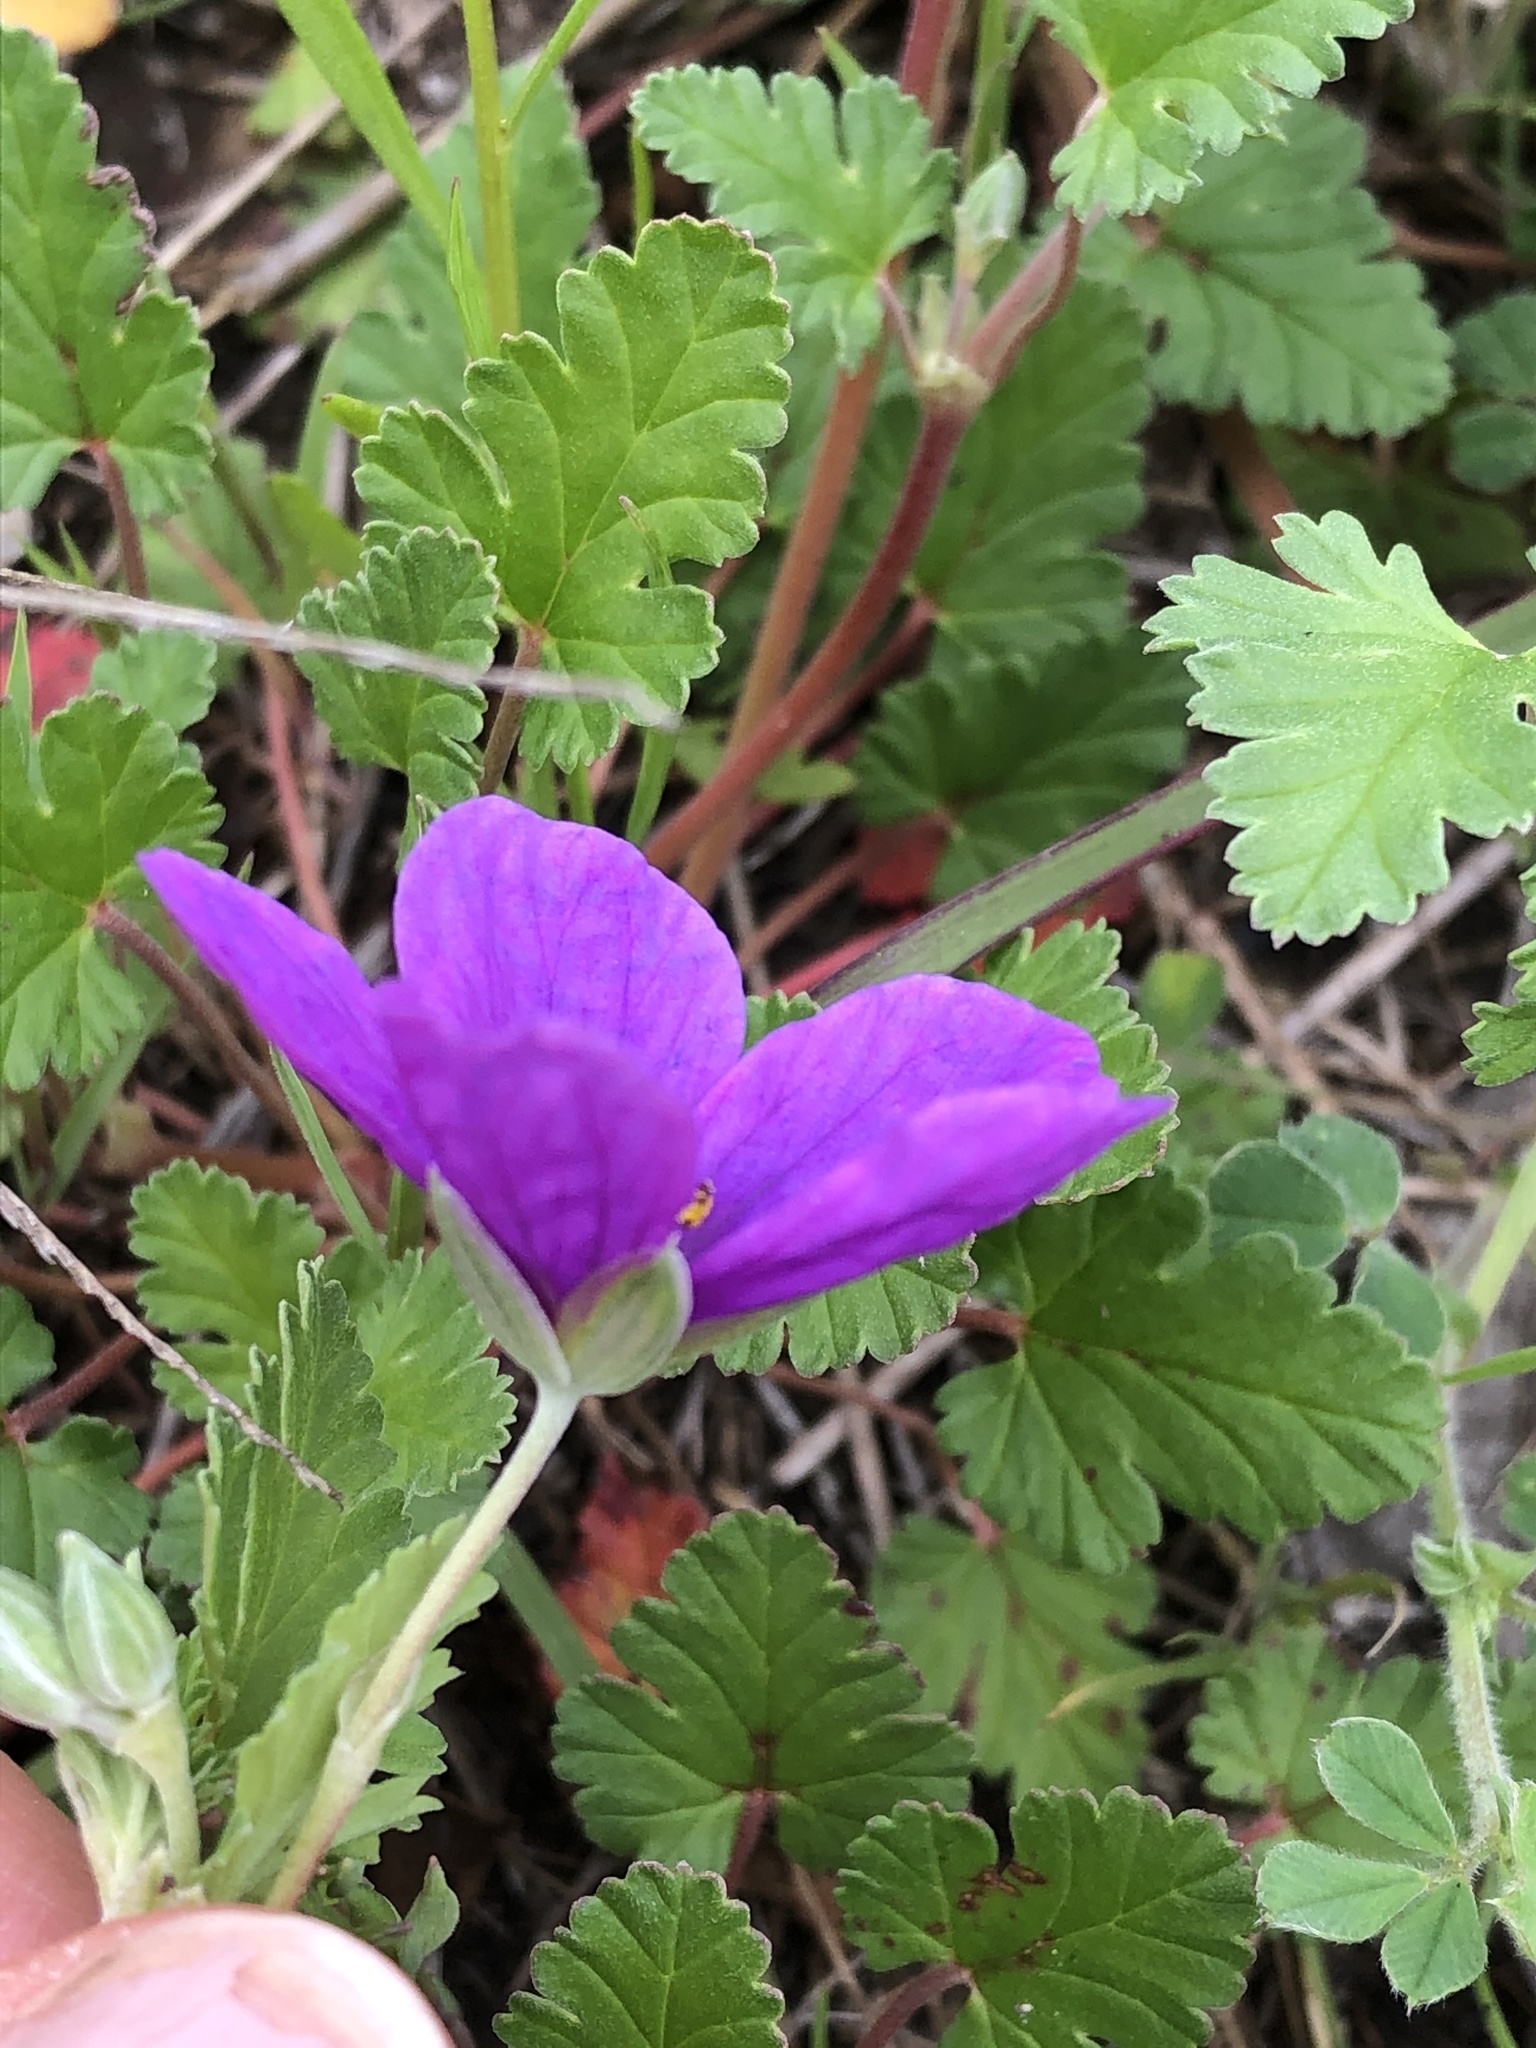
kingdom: Plantae
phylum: Tracheophyta
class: Magnoliopsida
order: Geraniales
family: Geraniaceae
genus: Erodium
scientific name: Erodium texanum
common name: Texas stork's-bill
